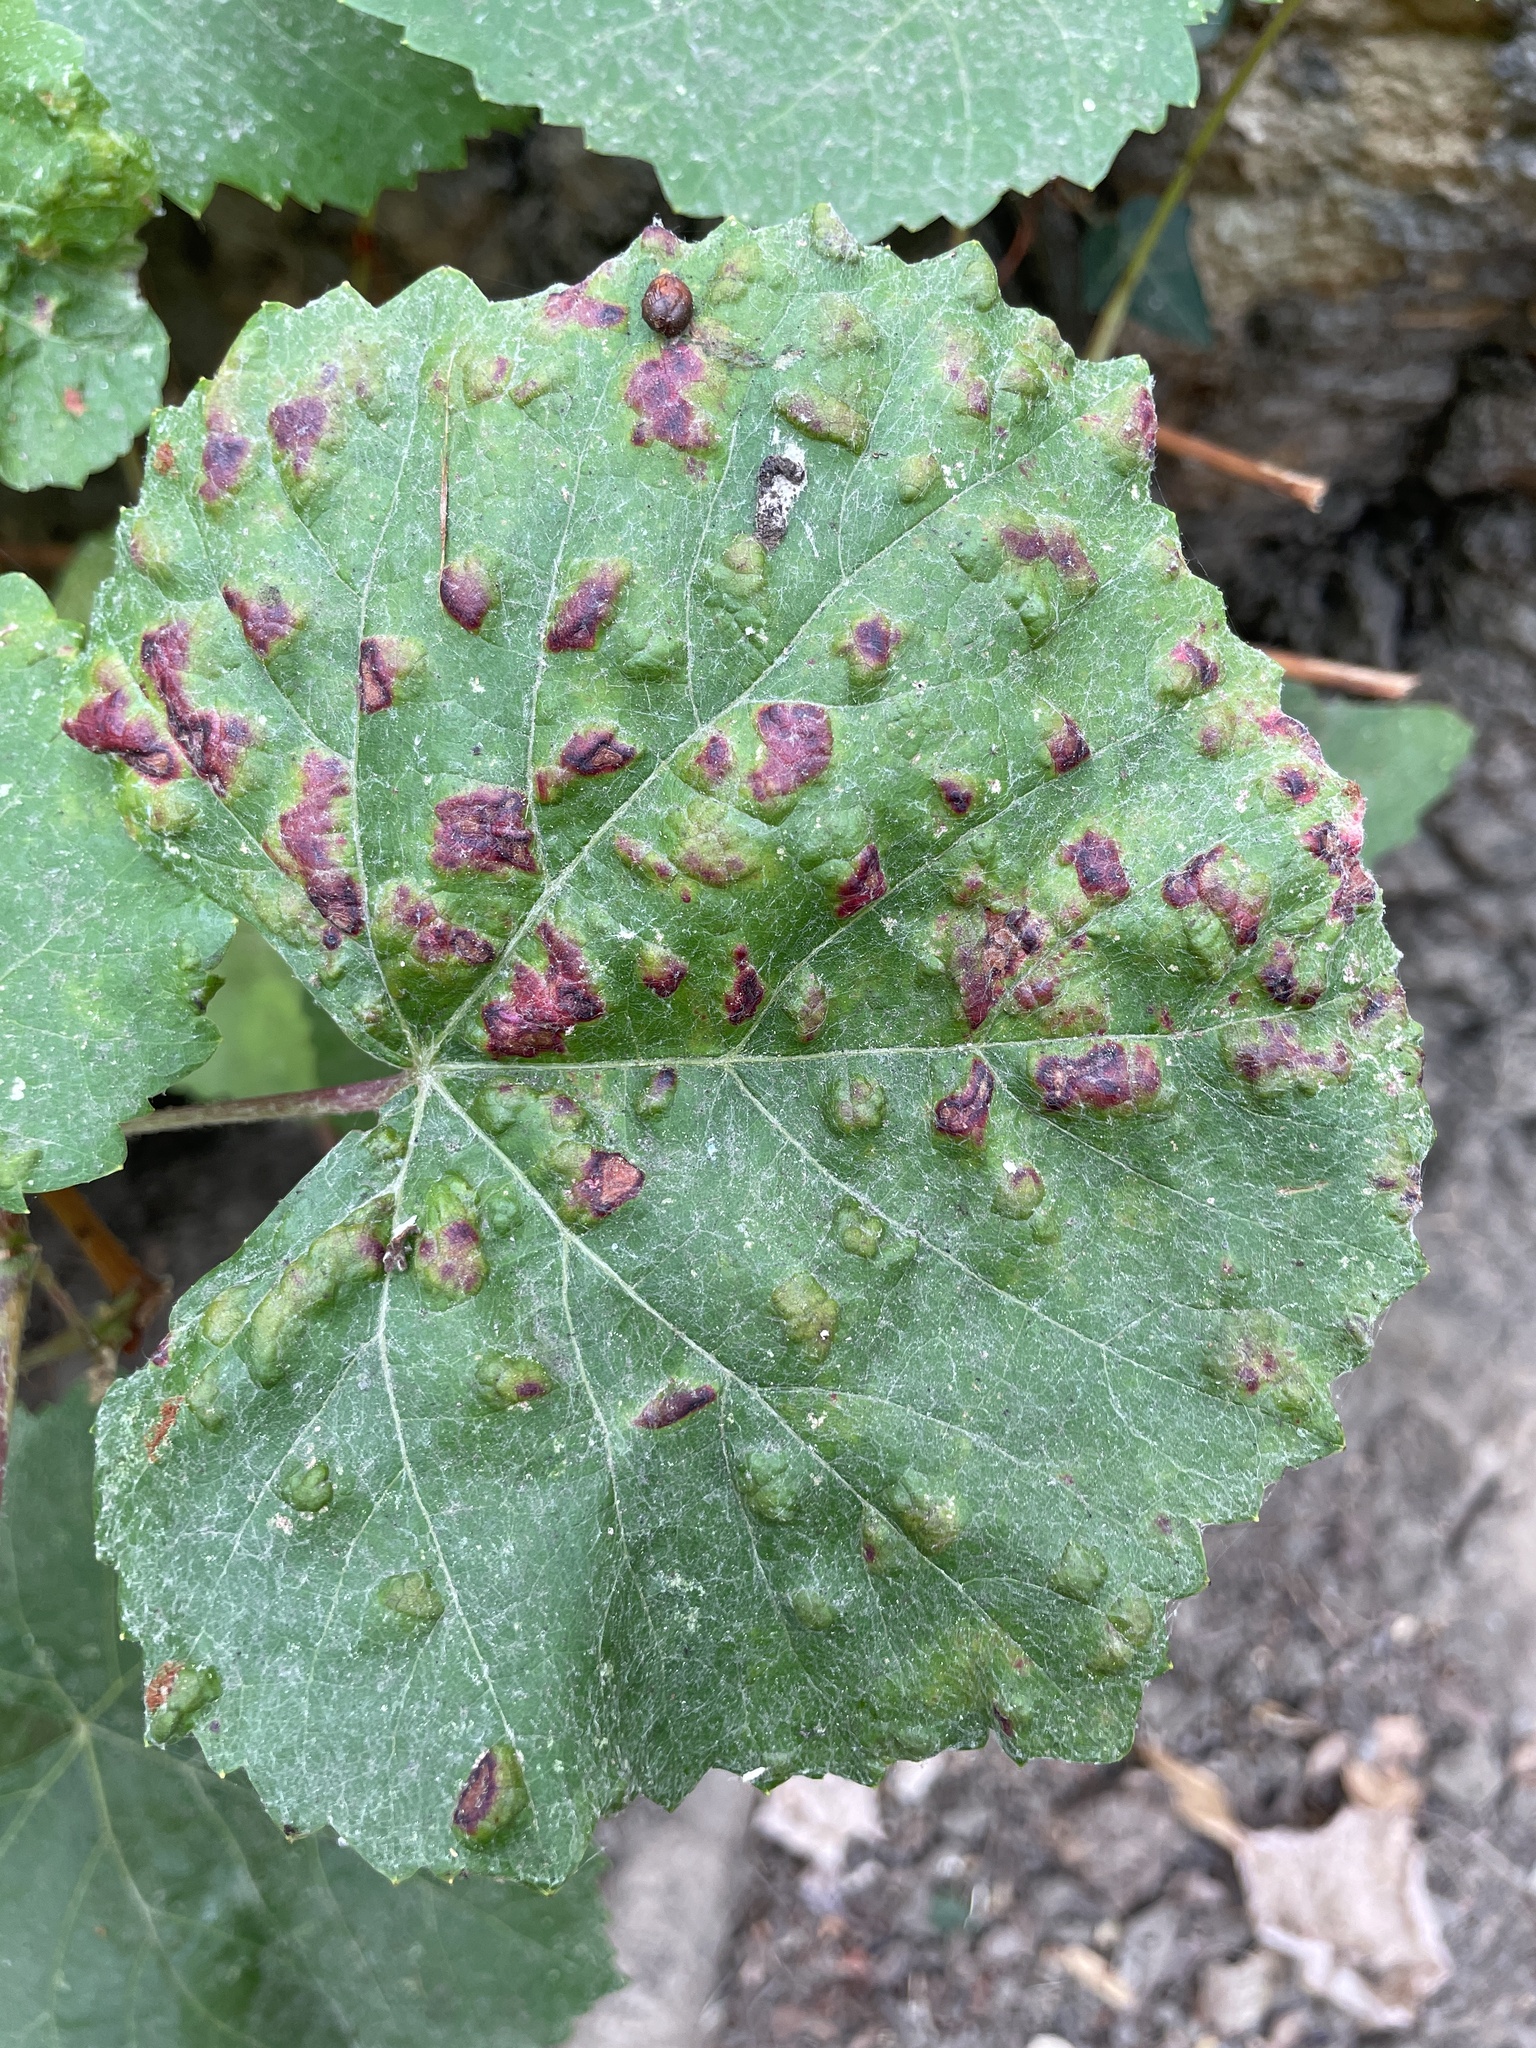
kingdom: Animalia
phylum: Arthropoda
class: Arachnida
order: Trombidiformes
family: Eriophyidae
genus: Colomerus
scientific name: Colomerus vitis
